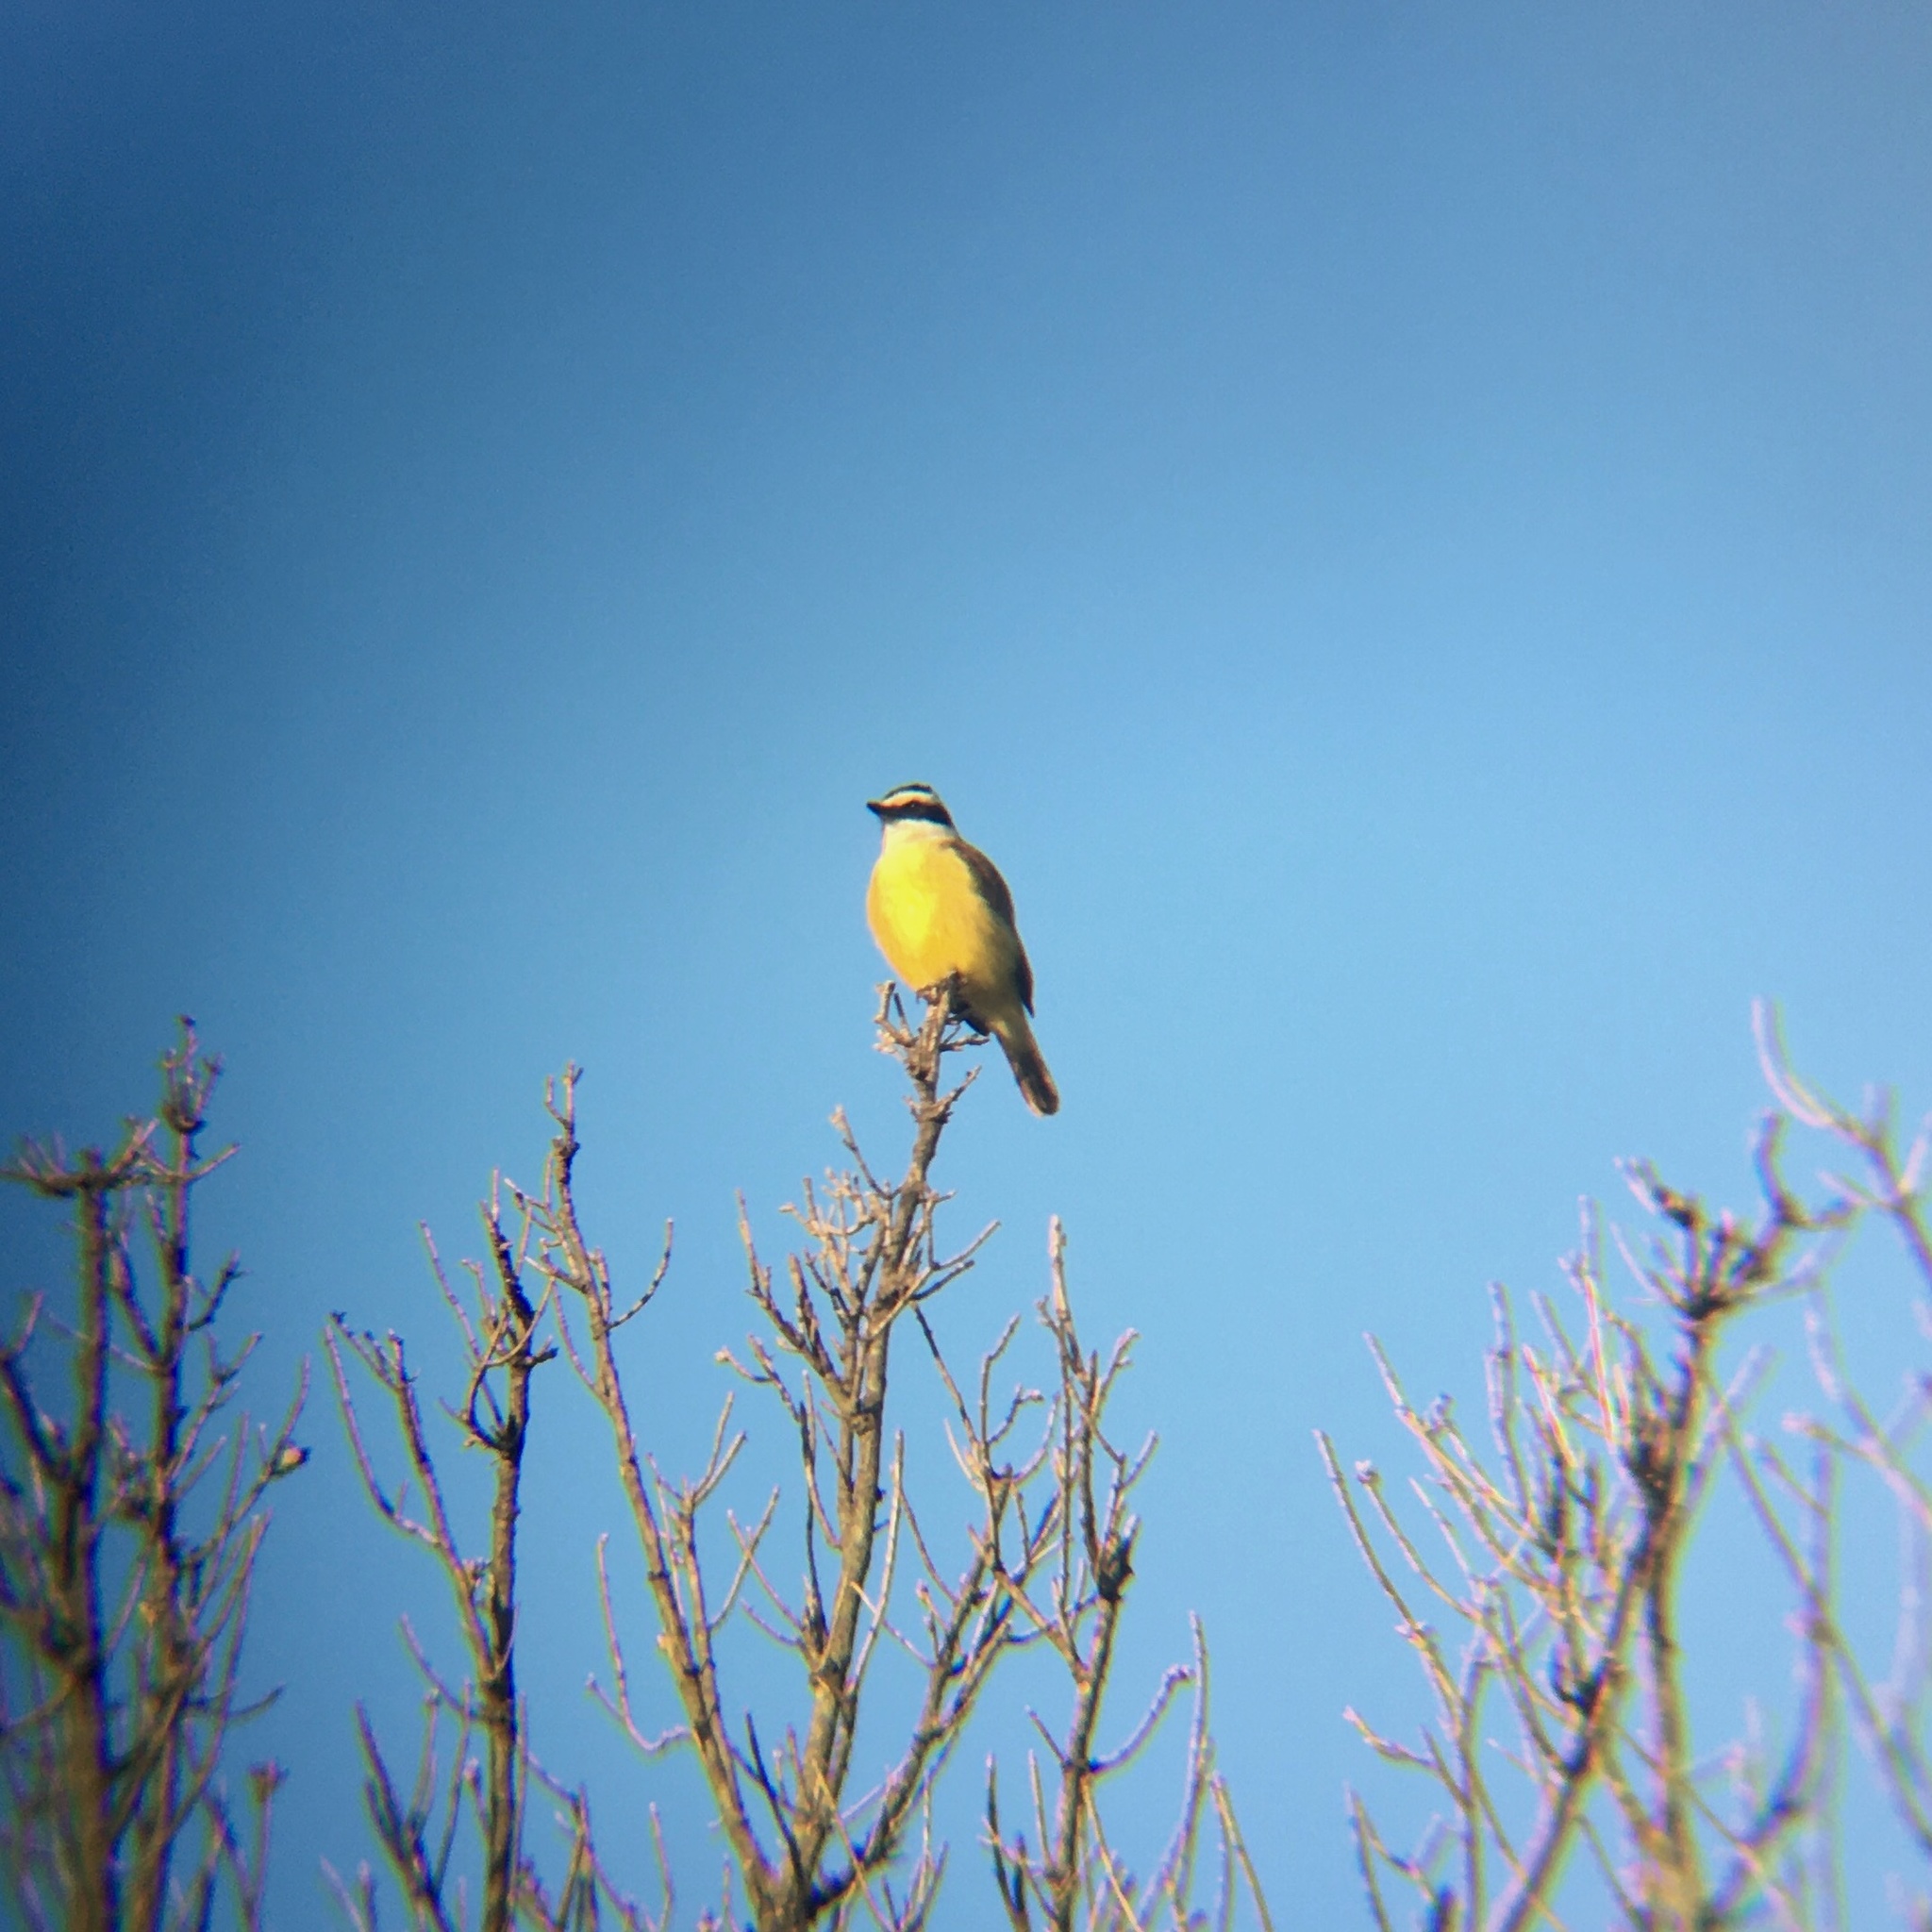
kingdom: Animalia
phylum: Chordata
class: Aves
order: Passeriformes
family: Tyrannidae
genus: Pitangus
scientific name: Pitangus sulphuratus
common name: Great kiskadee
